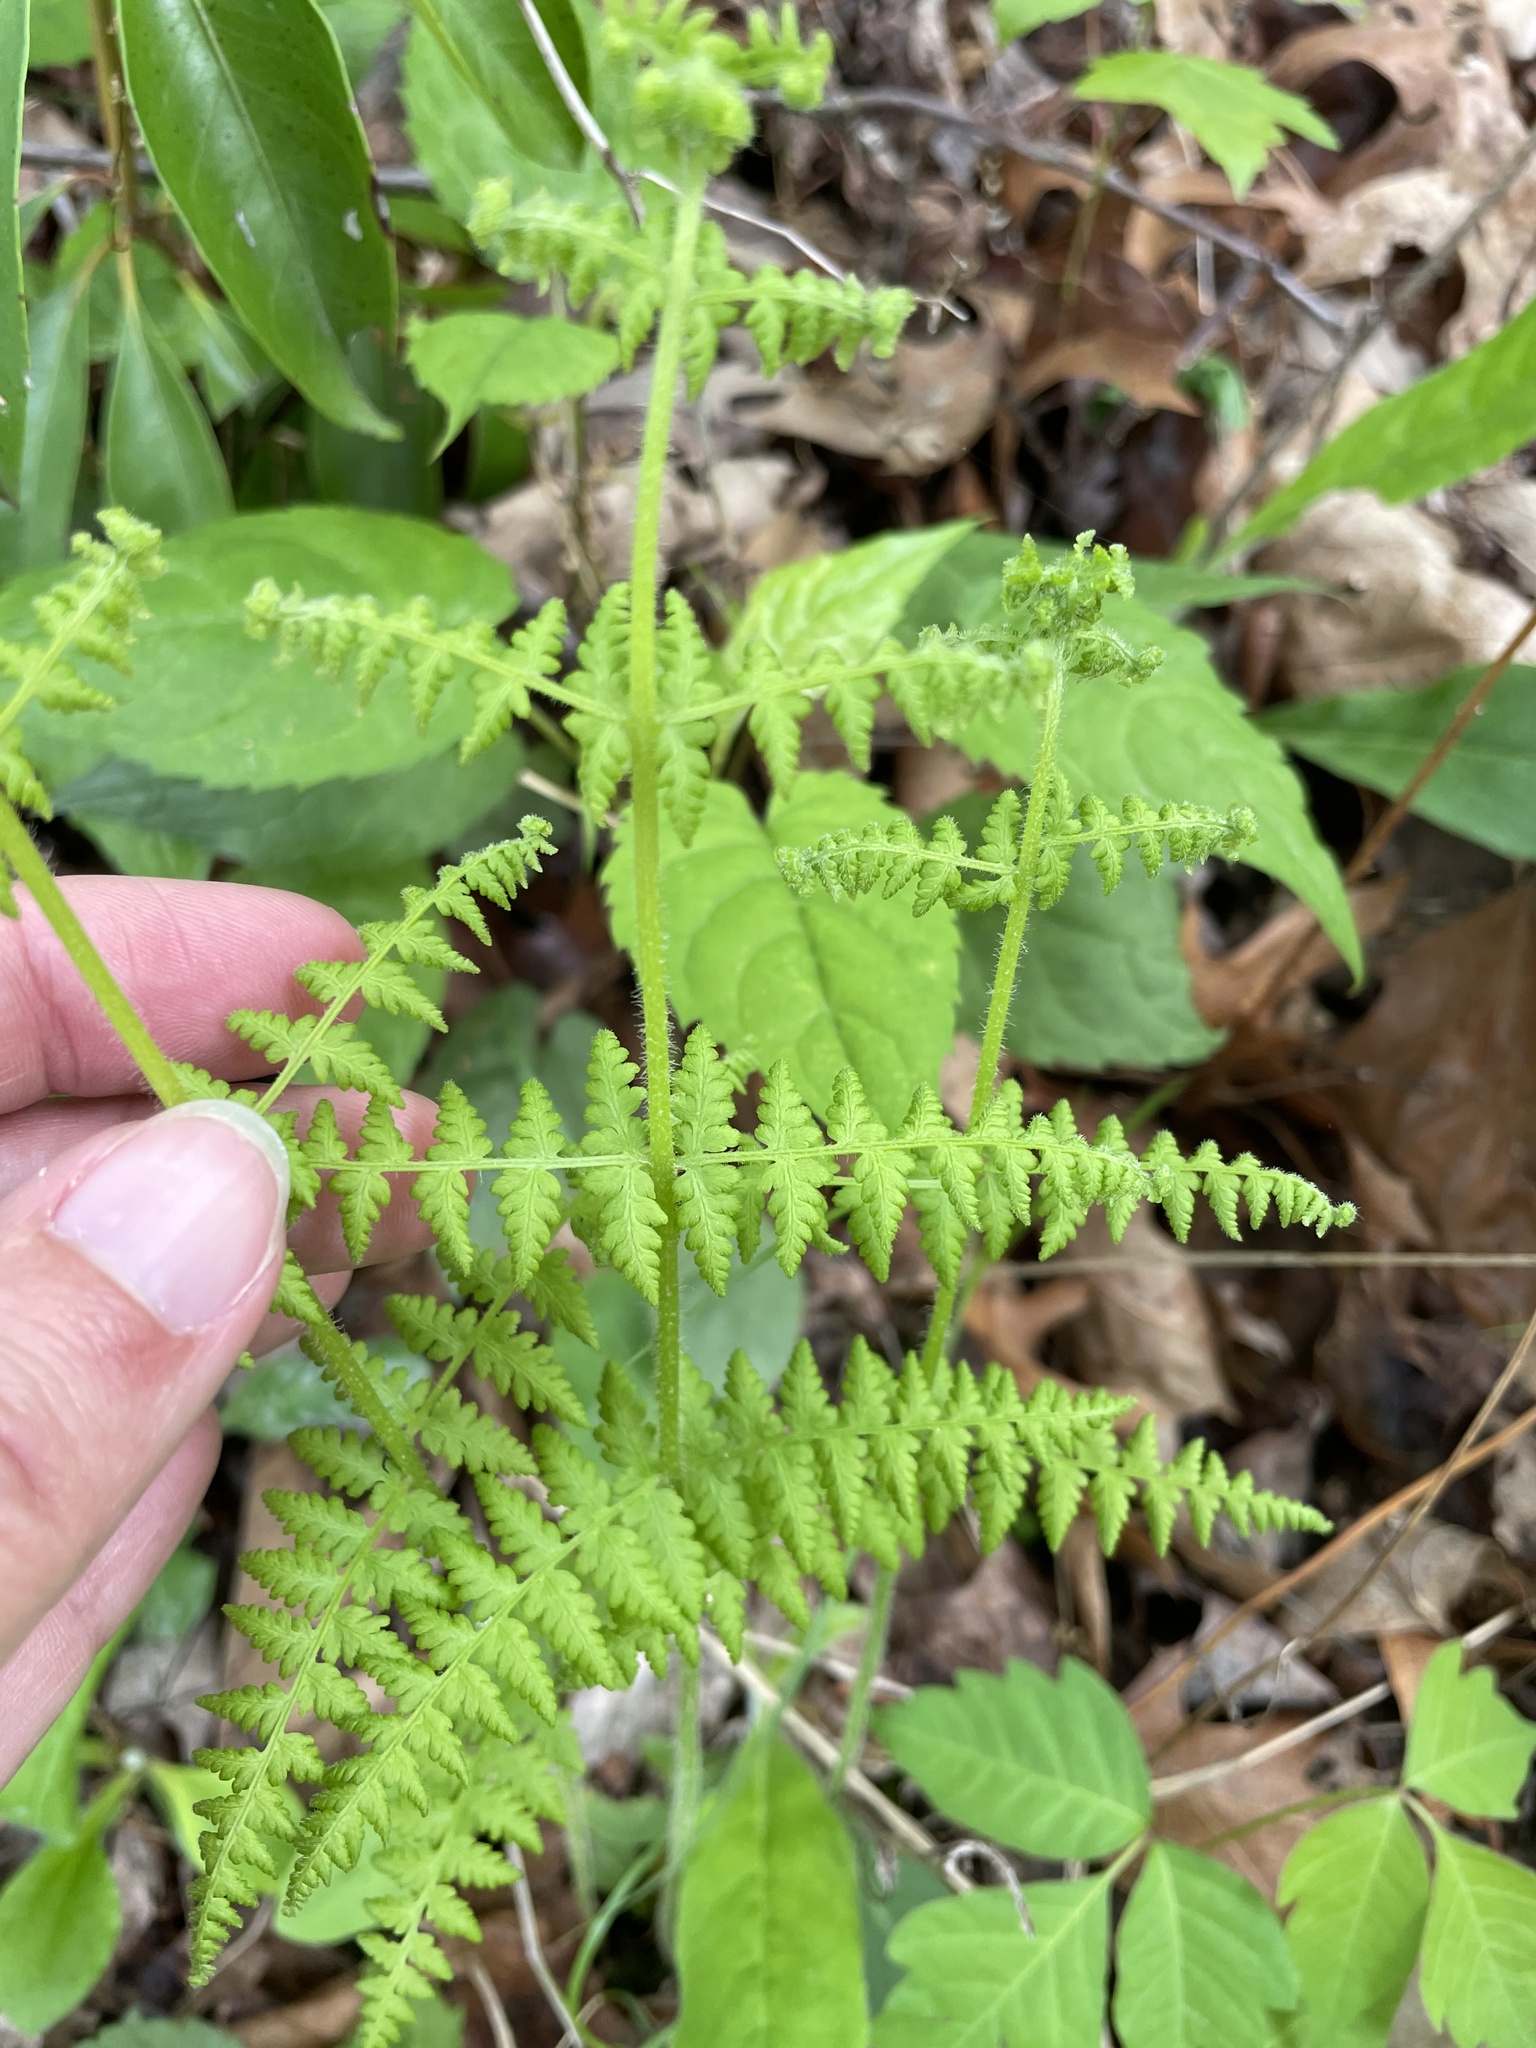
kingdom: Plantae
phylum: Tracheophyta
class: Polypodiopsida
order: Polypodiales
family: Dennstaedtiaceae
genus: Sitobolium
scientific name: Sitobolium punctilobum
